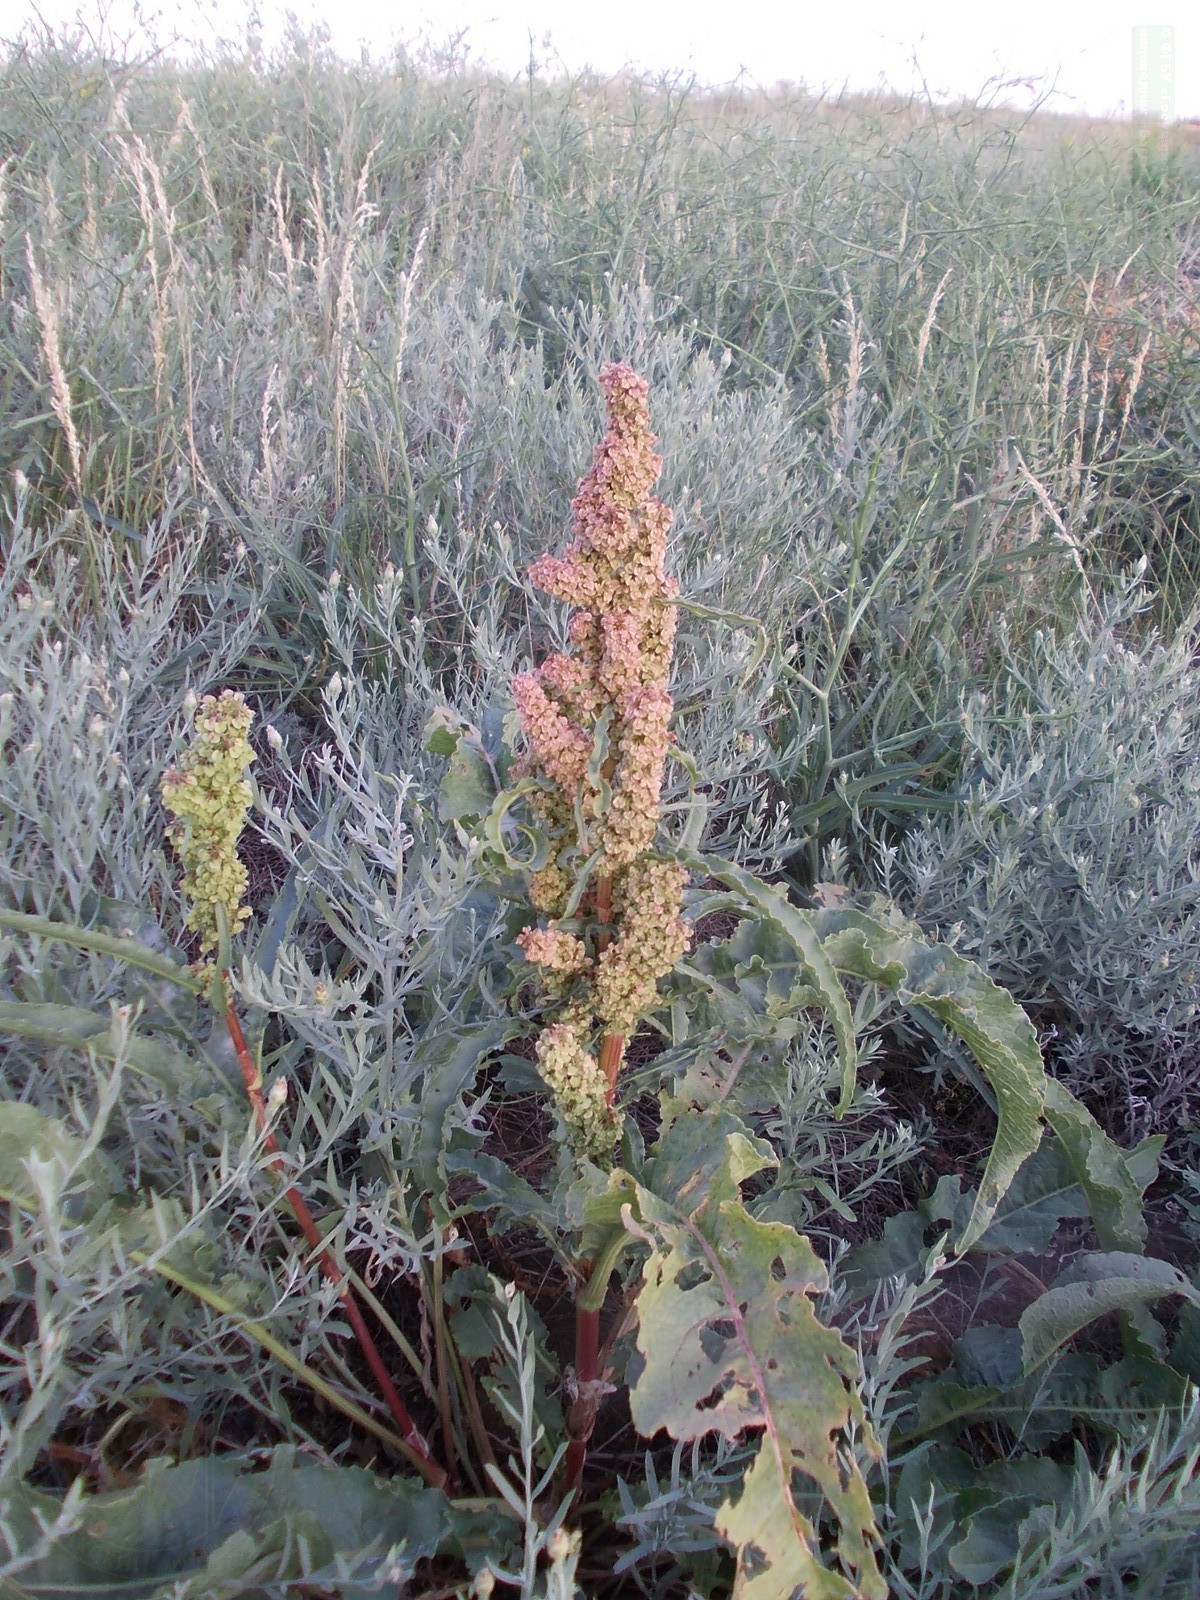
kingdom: Plantae
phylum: Tracheophyta
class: Magnoliopsida
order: Caryophyllales
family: Polygonaceae
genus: Rumex
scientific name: Rumex crispus
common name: Curled dock
